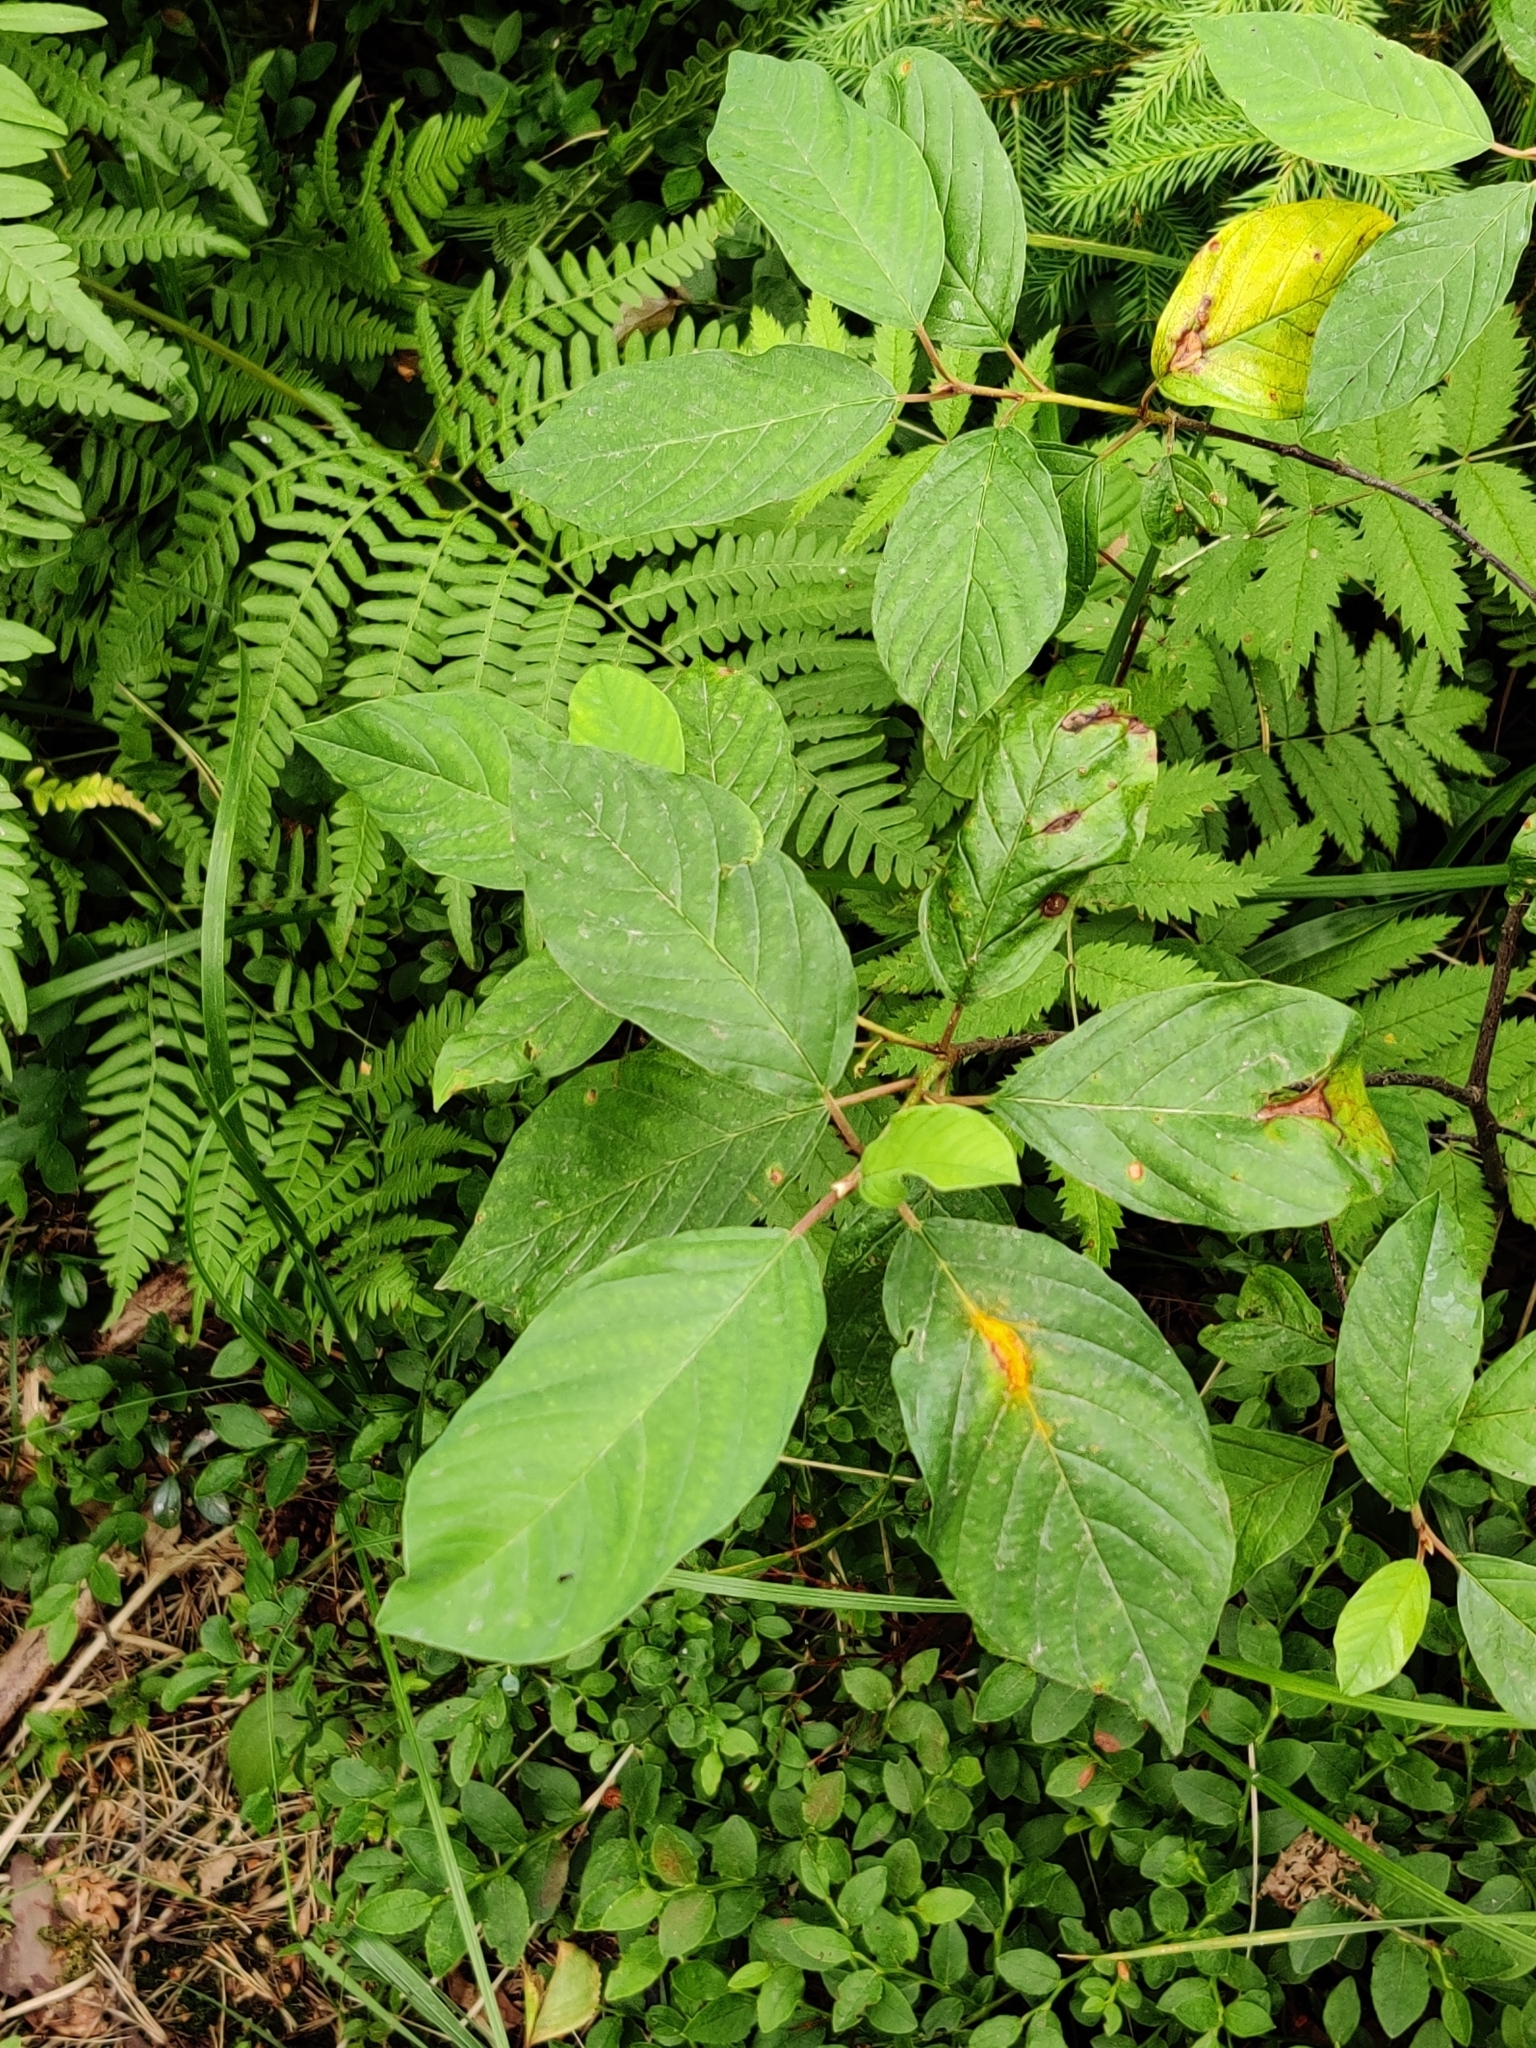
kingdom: Plantae
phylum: Tracheophyta
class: Magnoliopsida
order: Rosales
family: Rhamnaceae
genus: Frangula
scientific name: Frangula alnus
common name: Alder buckthorn
